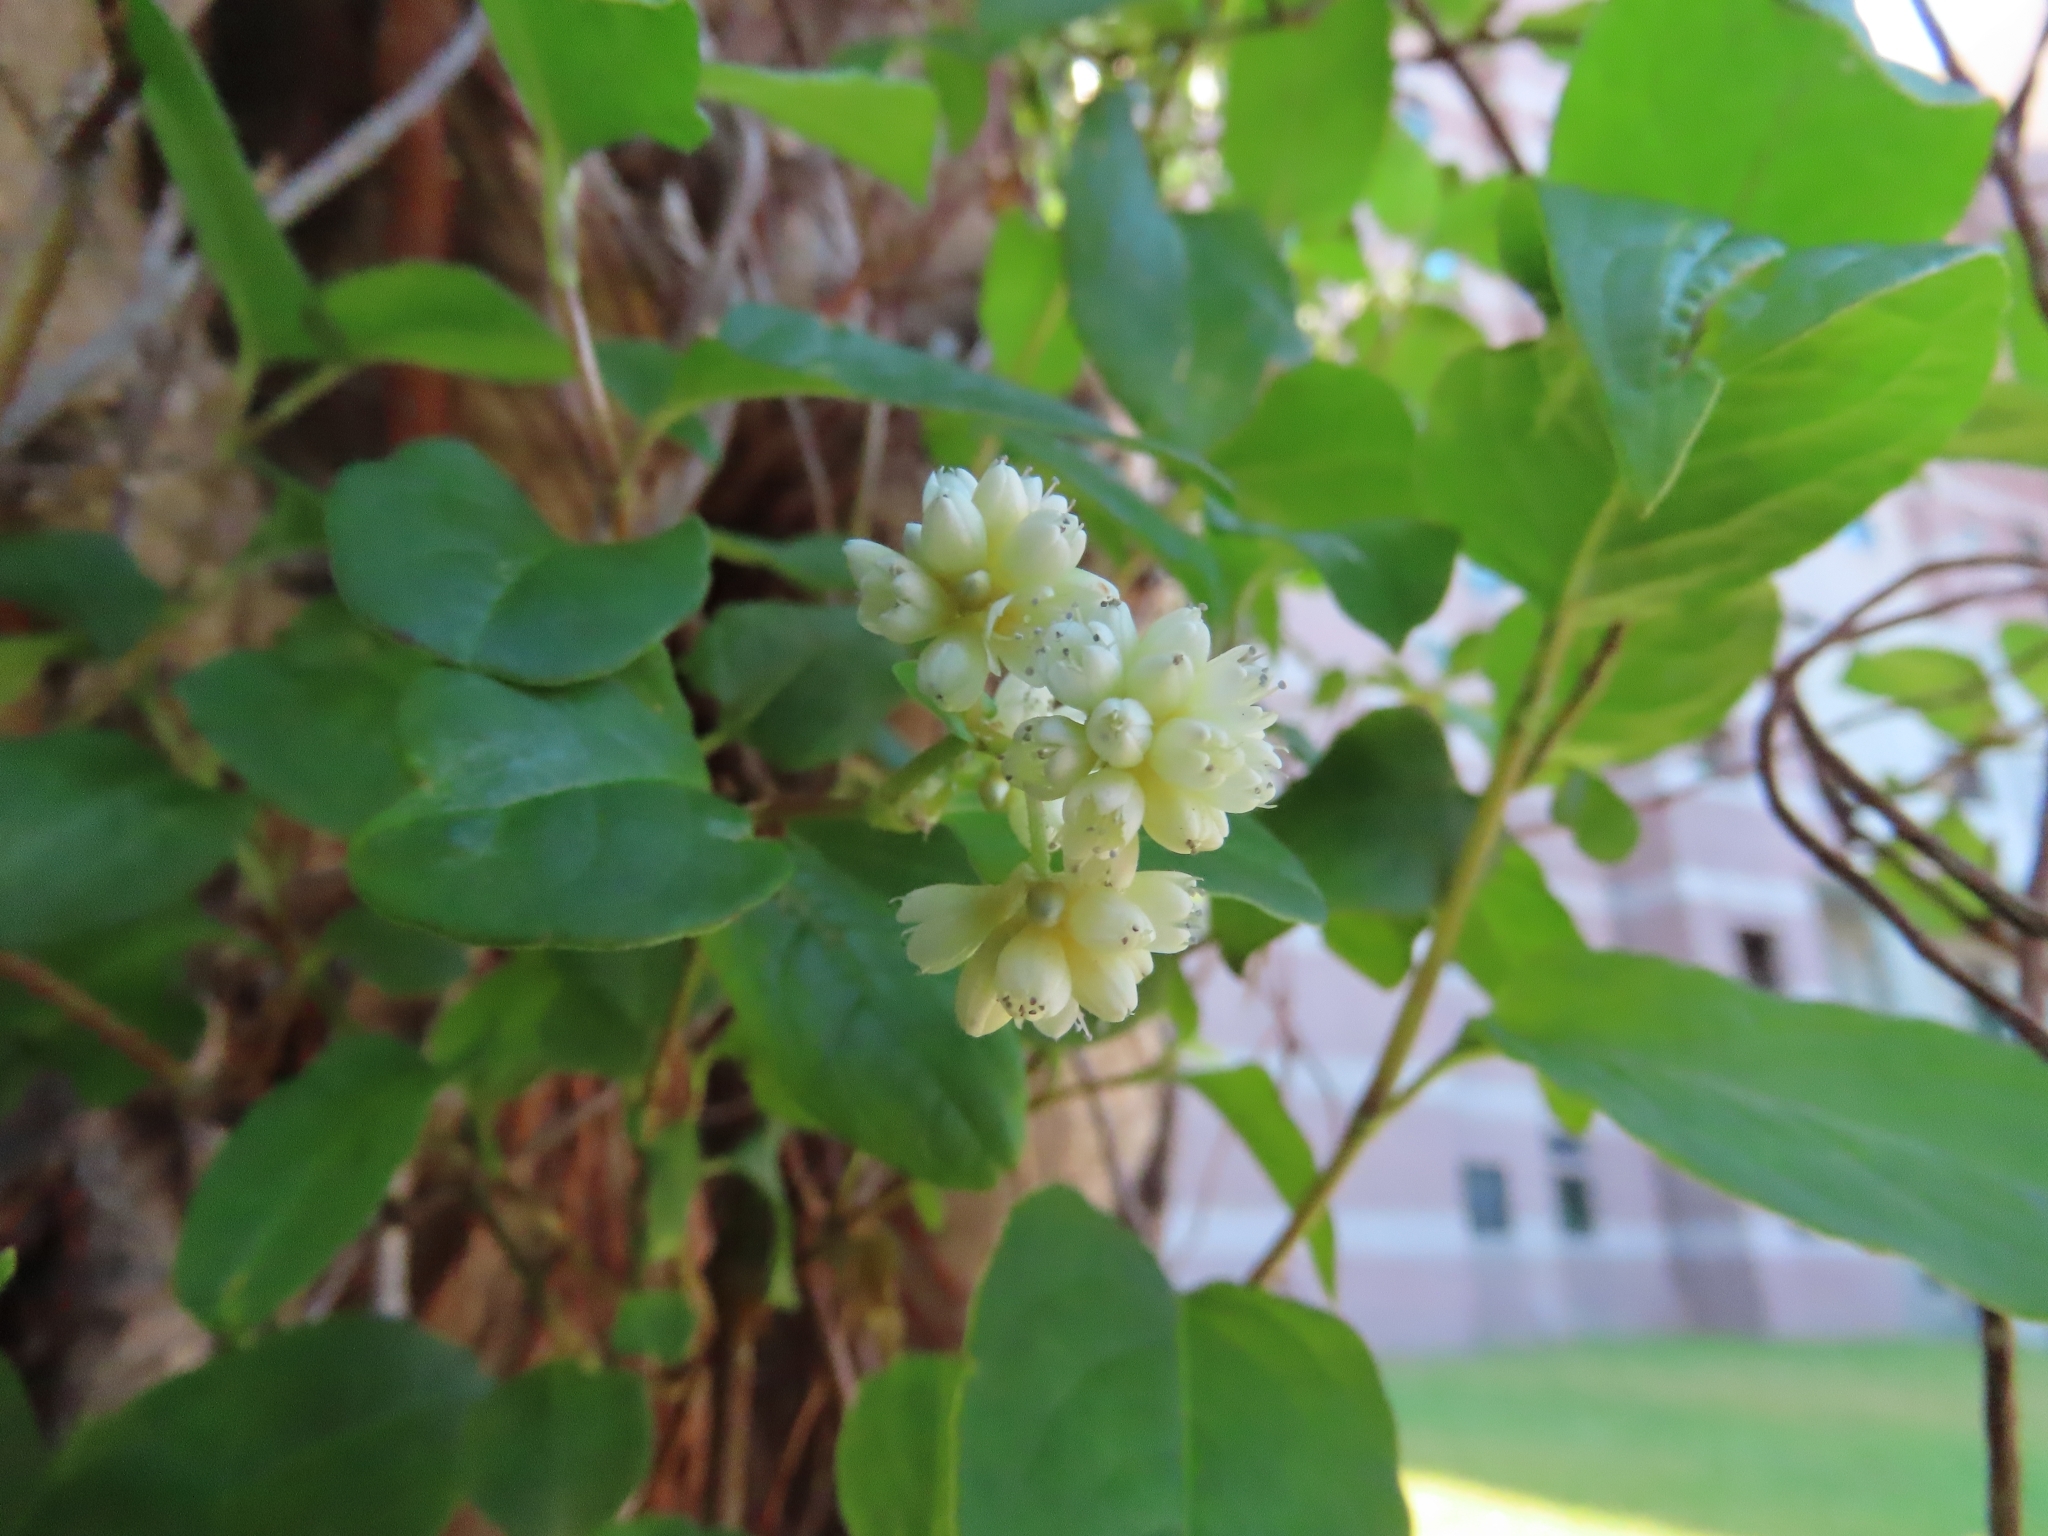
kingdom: Plantae
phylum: Tracheophyta
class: Magnoliopsida
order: Caryophyllales
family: Polygonaceae
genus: Persicaria
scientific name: Persicaria chinensis
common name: Chinese knotweed
